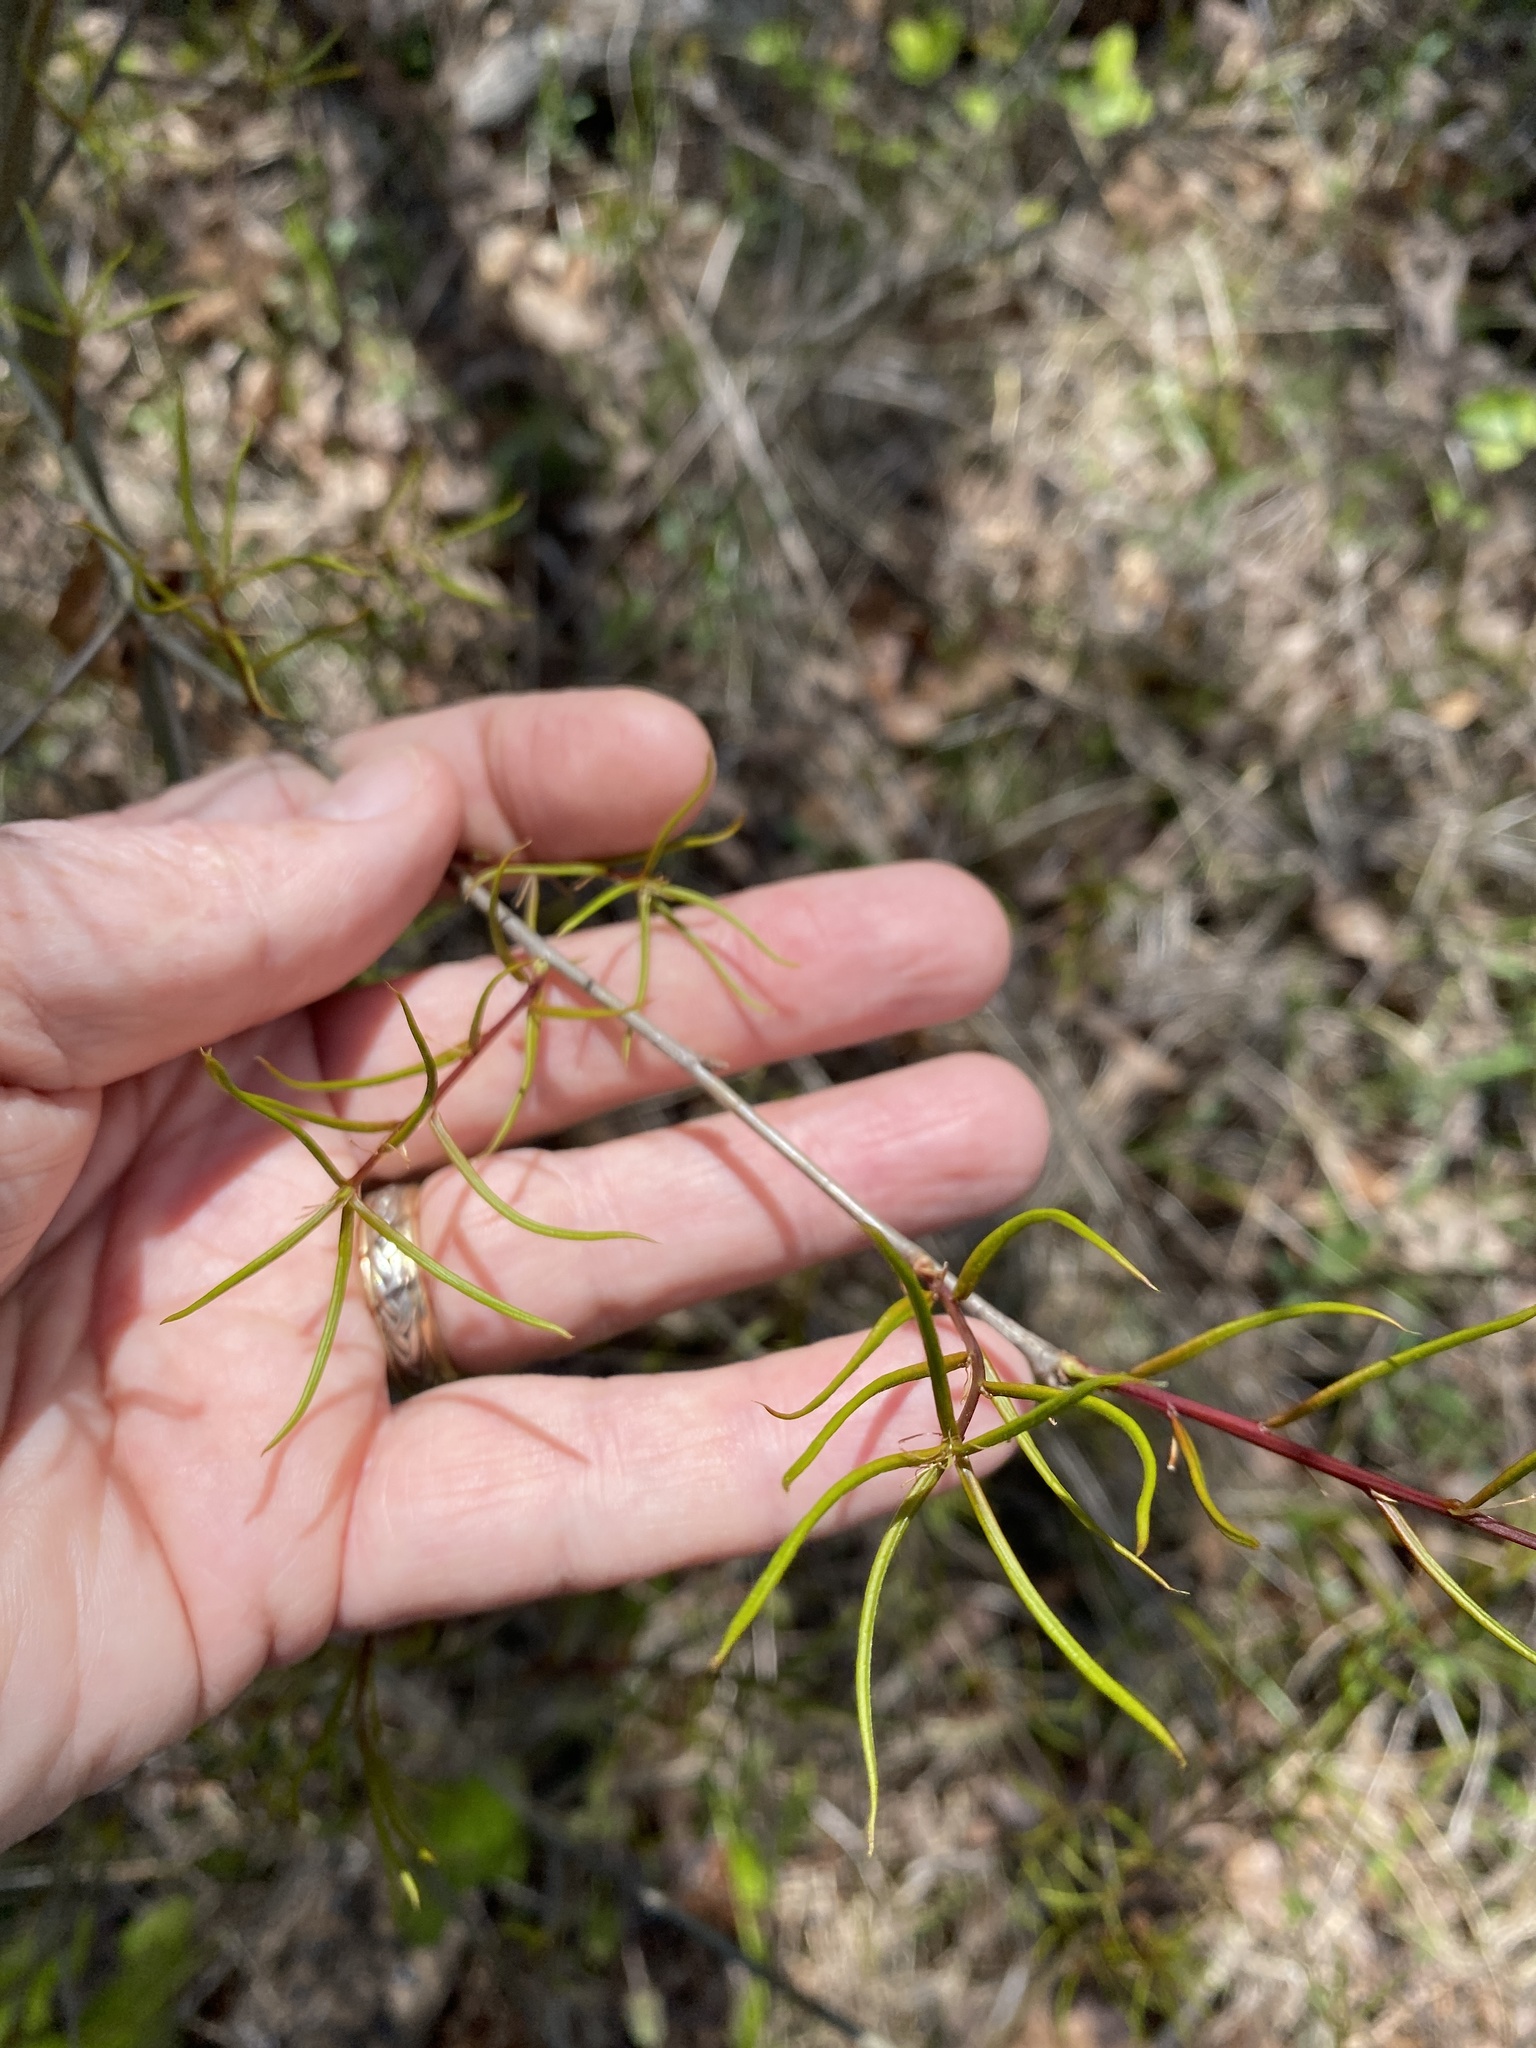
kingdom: Plantae
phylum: Tracheophyta
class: Magnoliopsida
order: Fagales
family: Fagaceae
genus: Quercus
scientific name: Quercus phellos
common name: Willow oak
